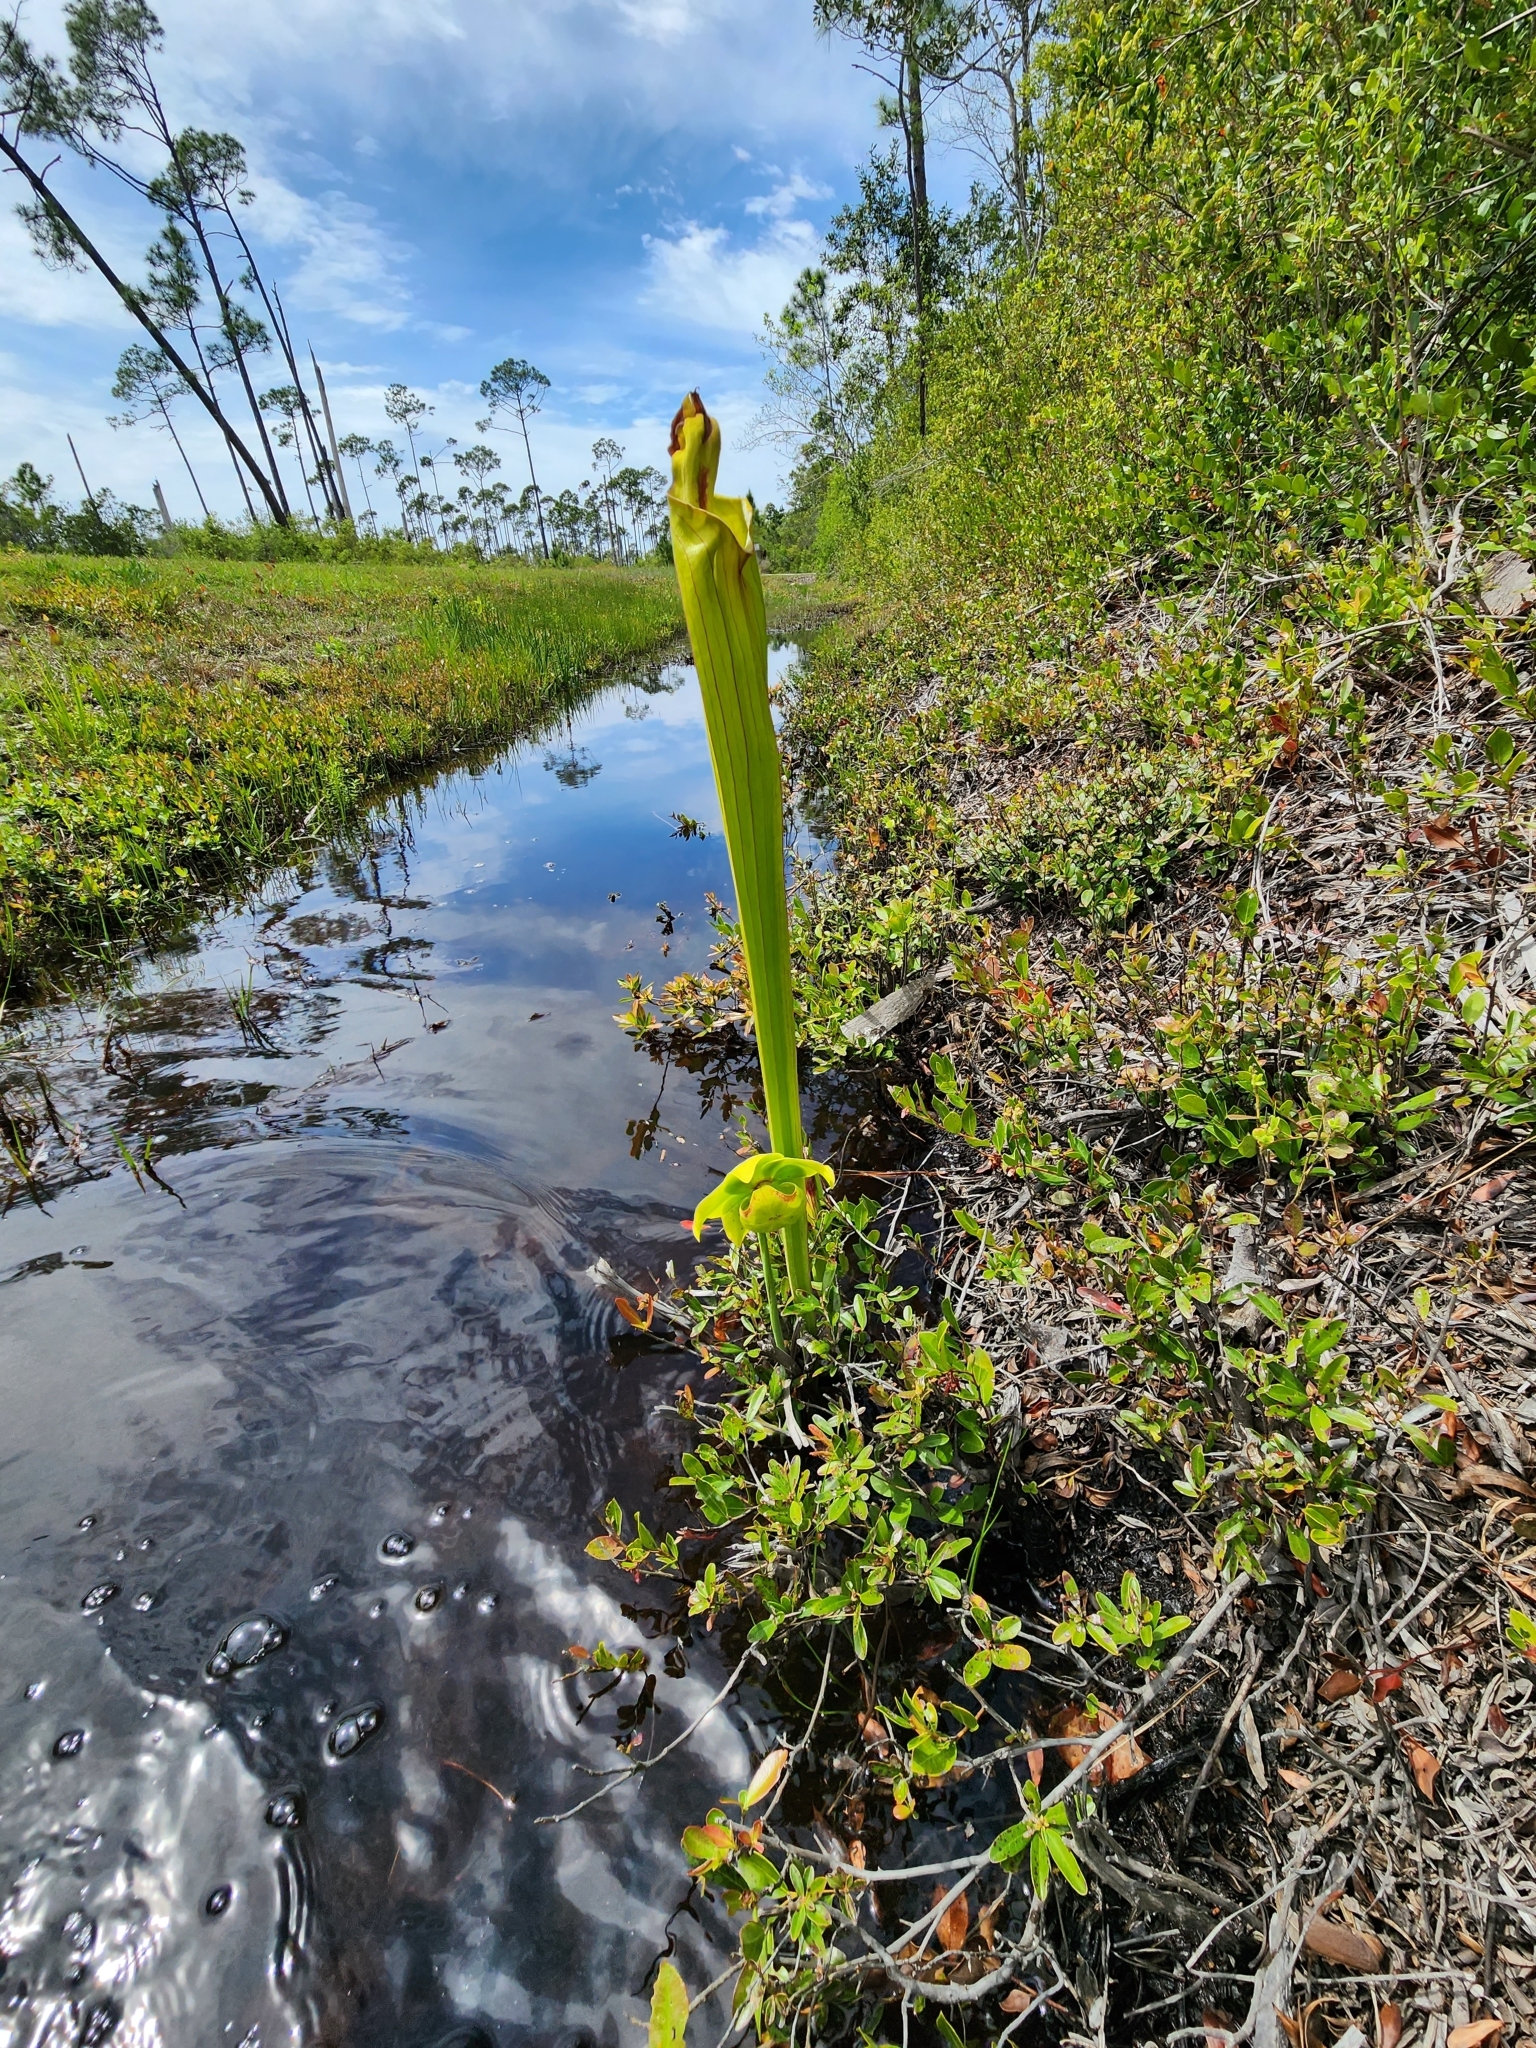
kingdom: Plantae
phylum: Tracheophyta
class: Magnoliopsida
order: Ericales
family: Sarraceniaceae
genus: Sarracenia
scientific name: Sarracenia flava
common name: Trumpets
